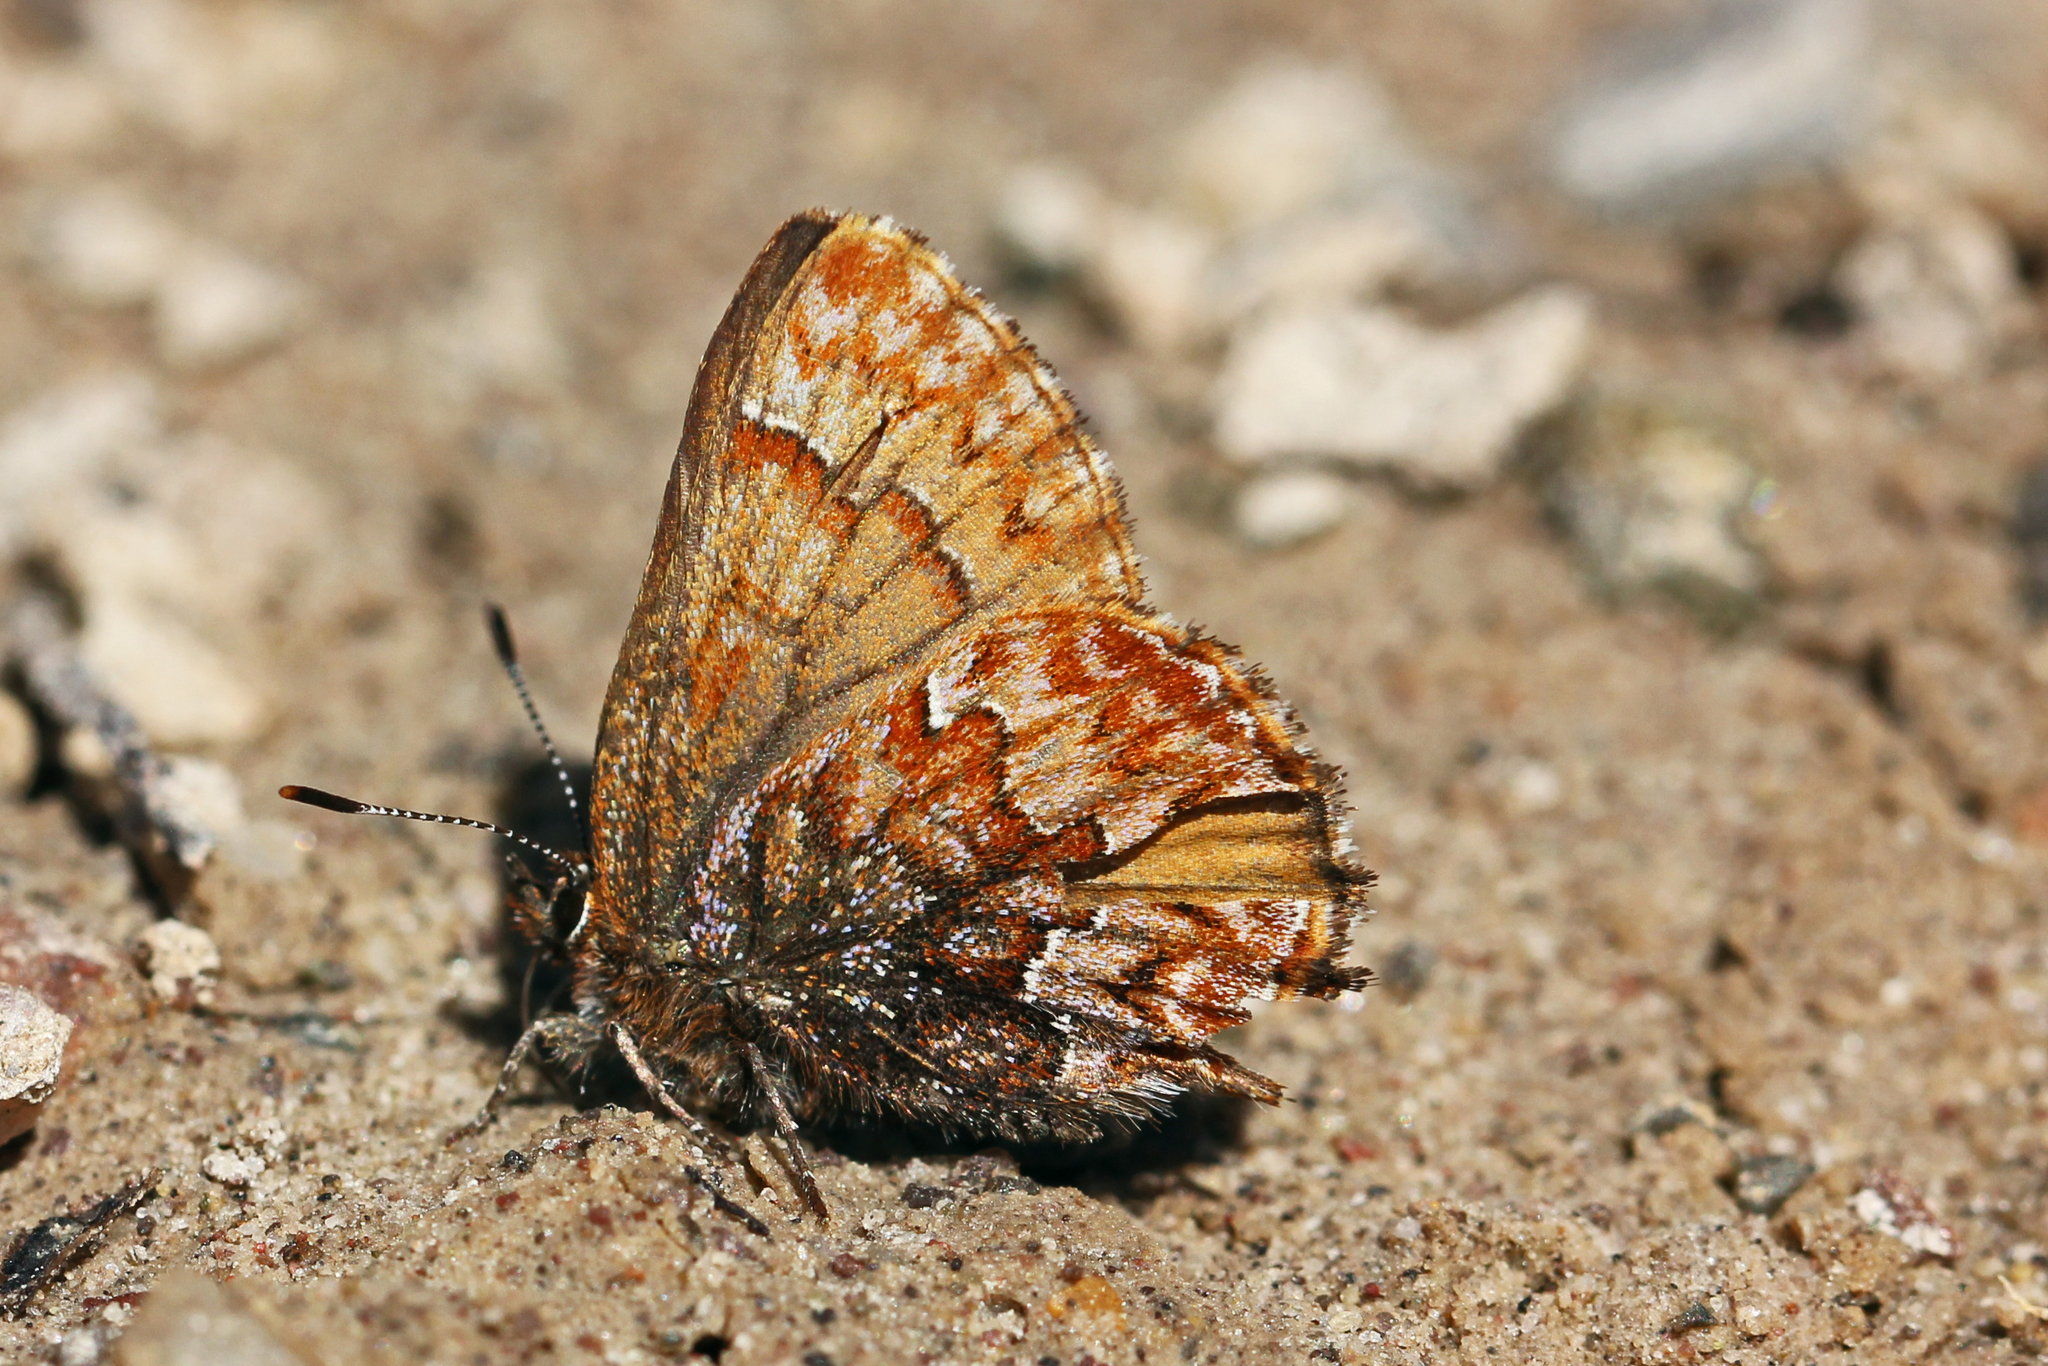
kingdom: Animalia
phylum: Arthropoda
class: Insecta
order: Lepidoptera
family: Lycaenidae
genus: Incisalia
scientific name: Incisalia eryphon
